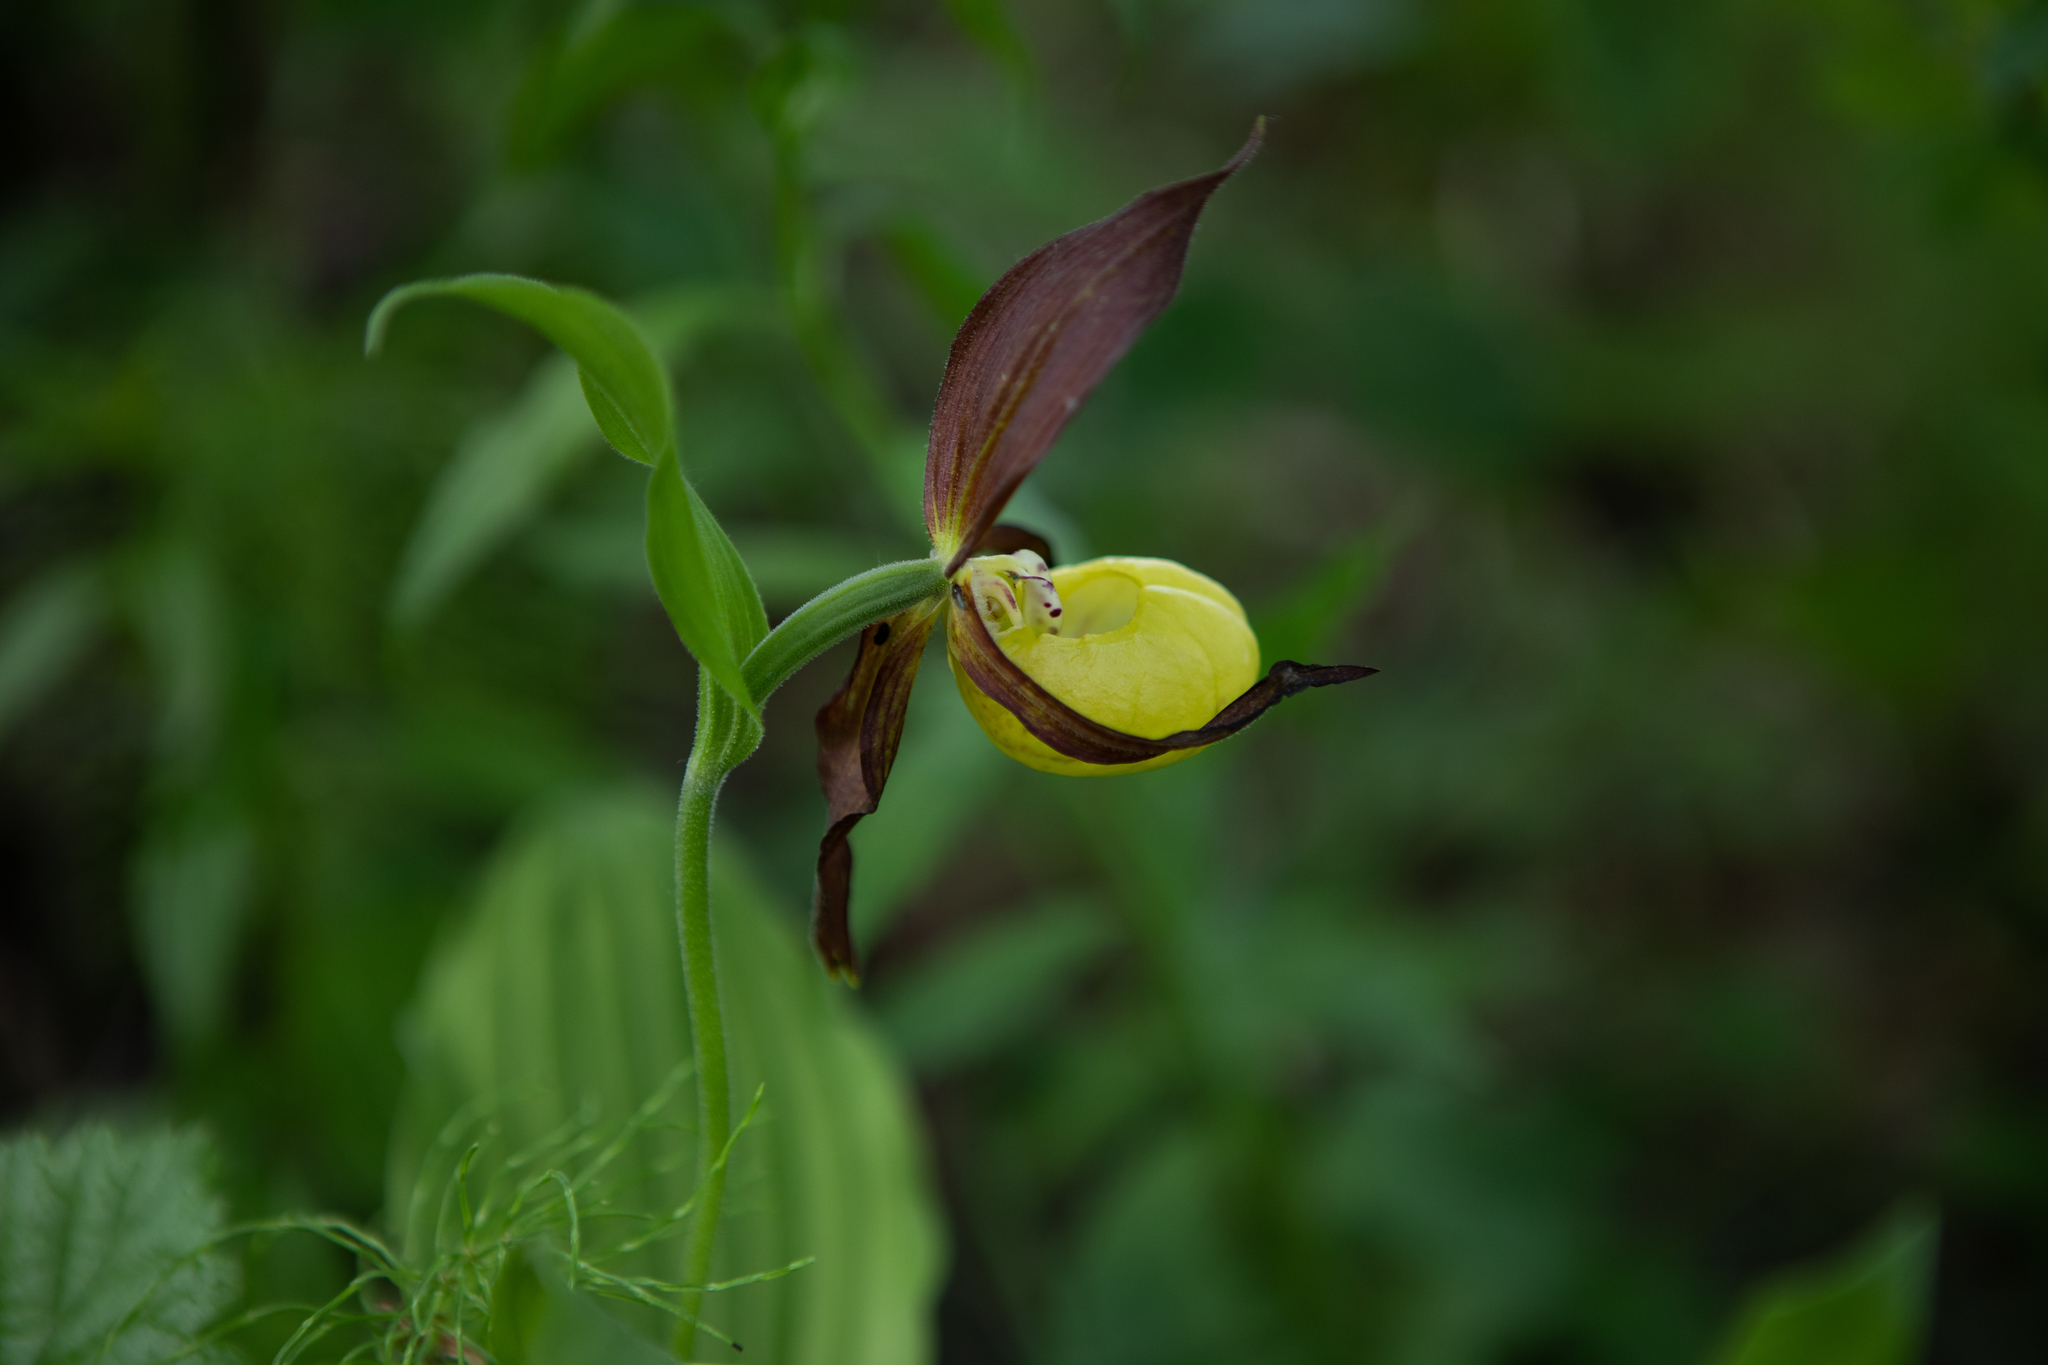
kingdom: Plantae
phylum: Tracheophyta
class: Liliopsida
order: Asparagales
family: Orchidaceae
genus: Cypripedium
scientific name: Cypripedium calceolus
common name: Lady's-slipper
